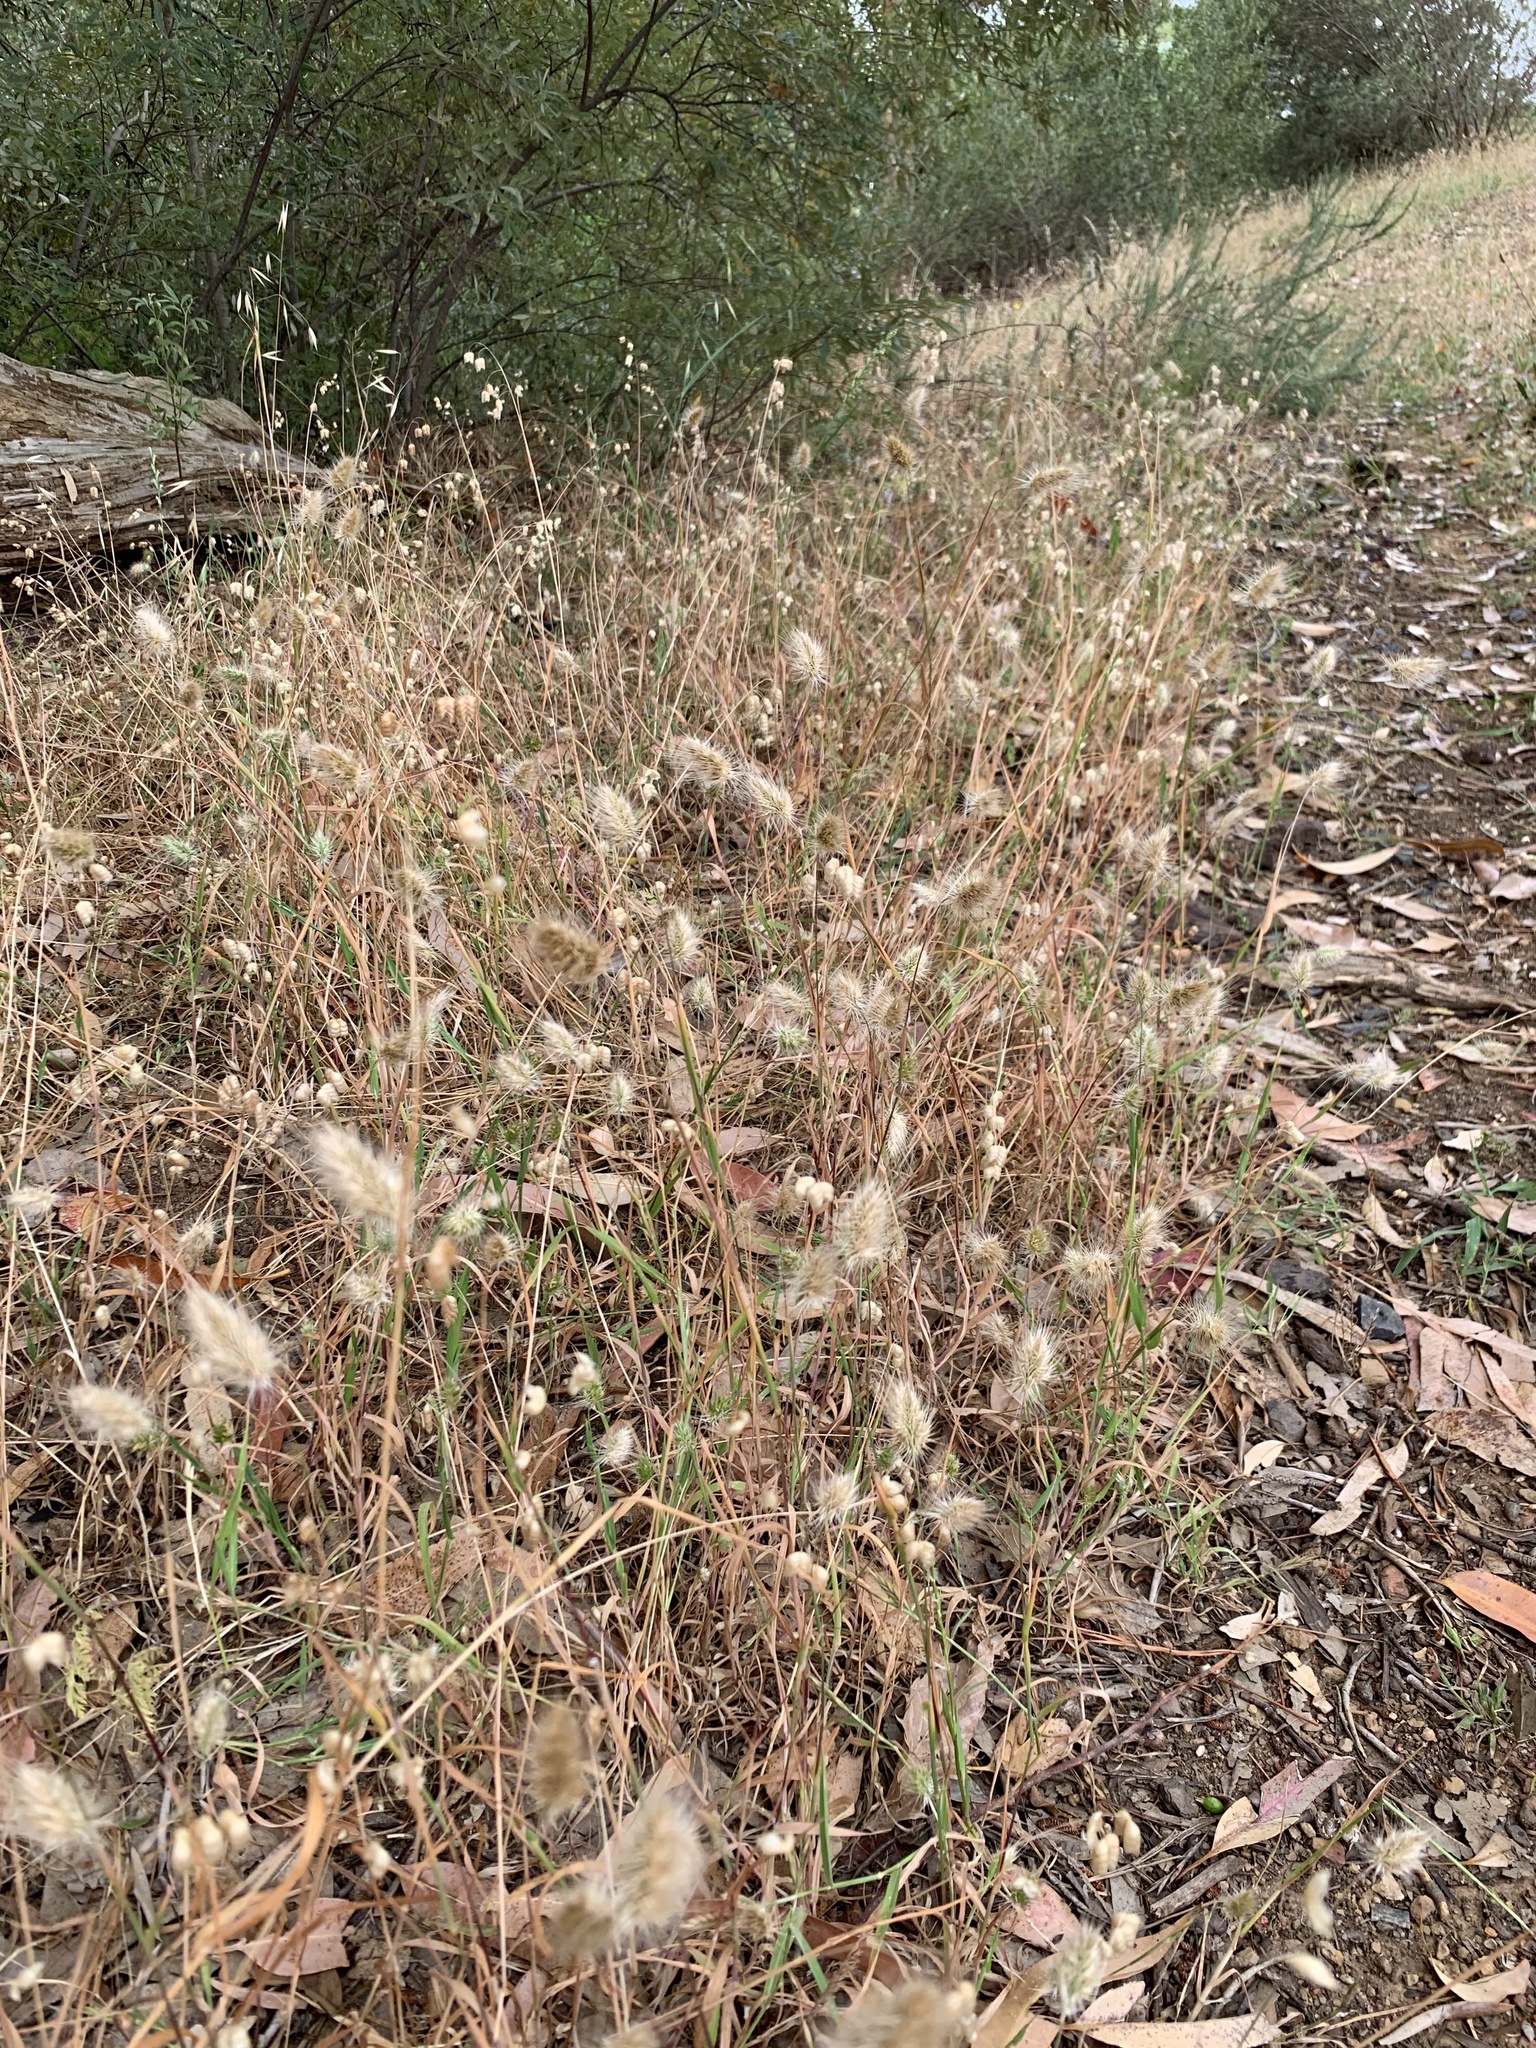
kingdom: Plantae
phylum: Tracheophyta
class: Liliopsida
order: Poales
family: Poaceae
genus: Cynosurus
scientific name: Cynosurus echinatus
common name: Rough dog's-tail
